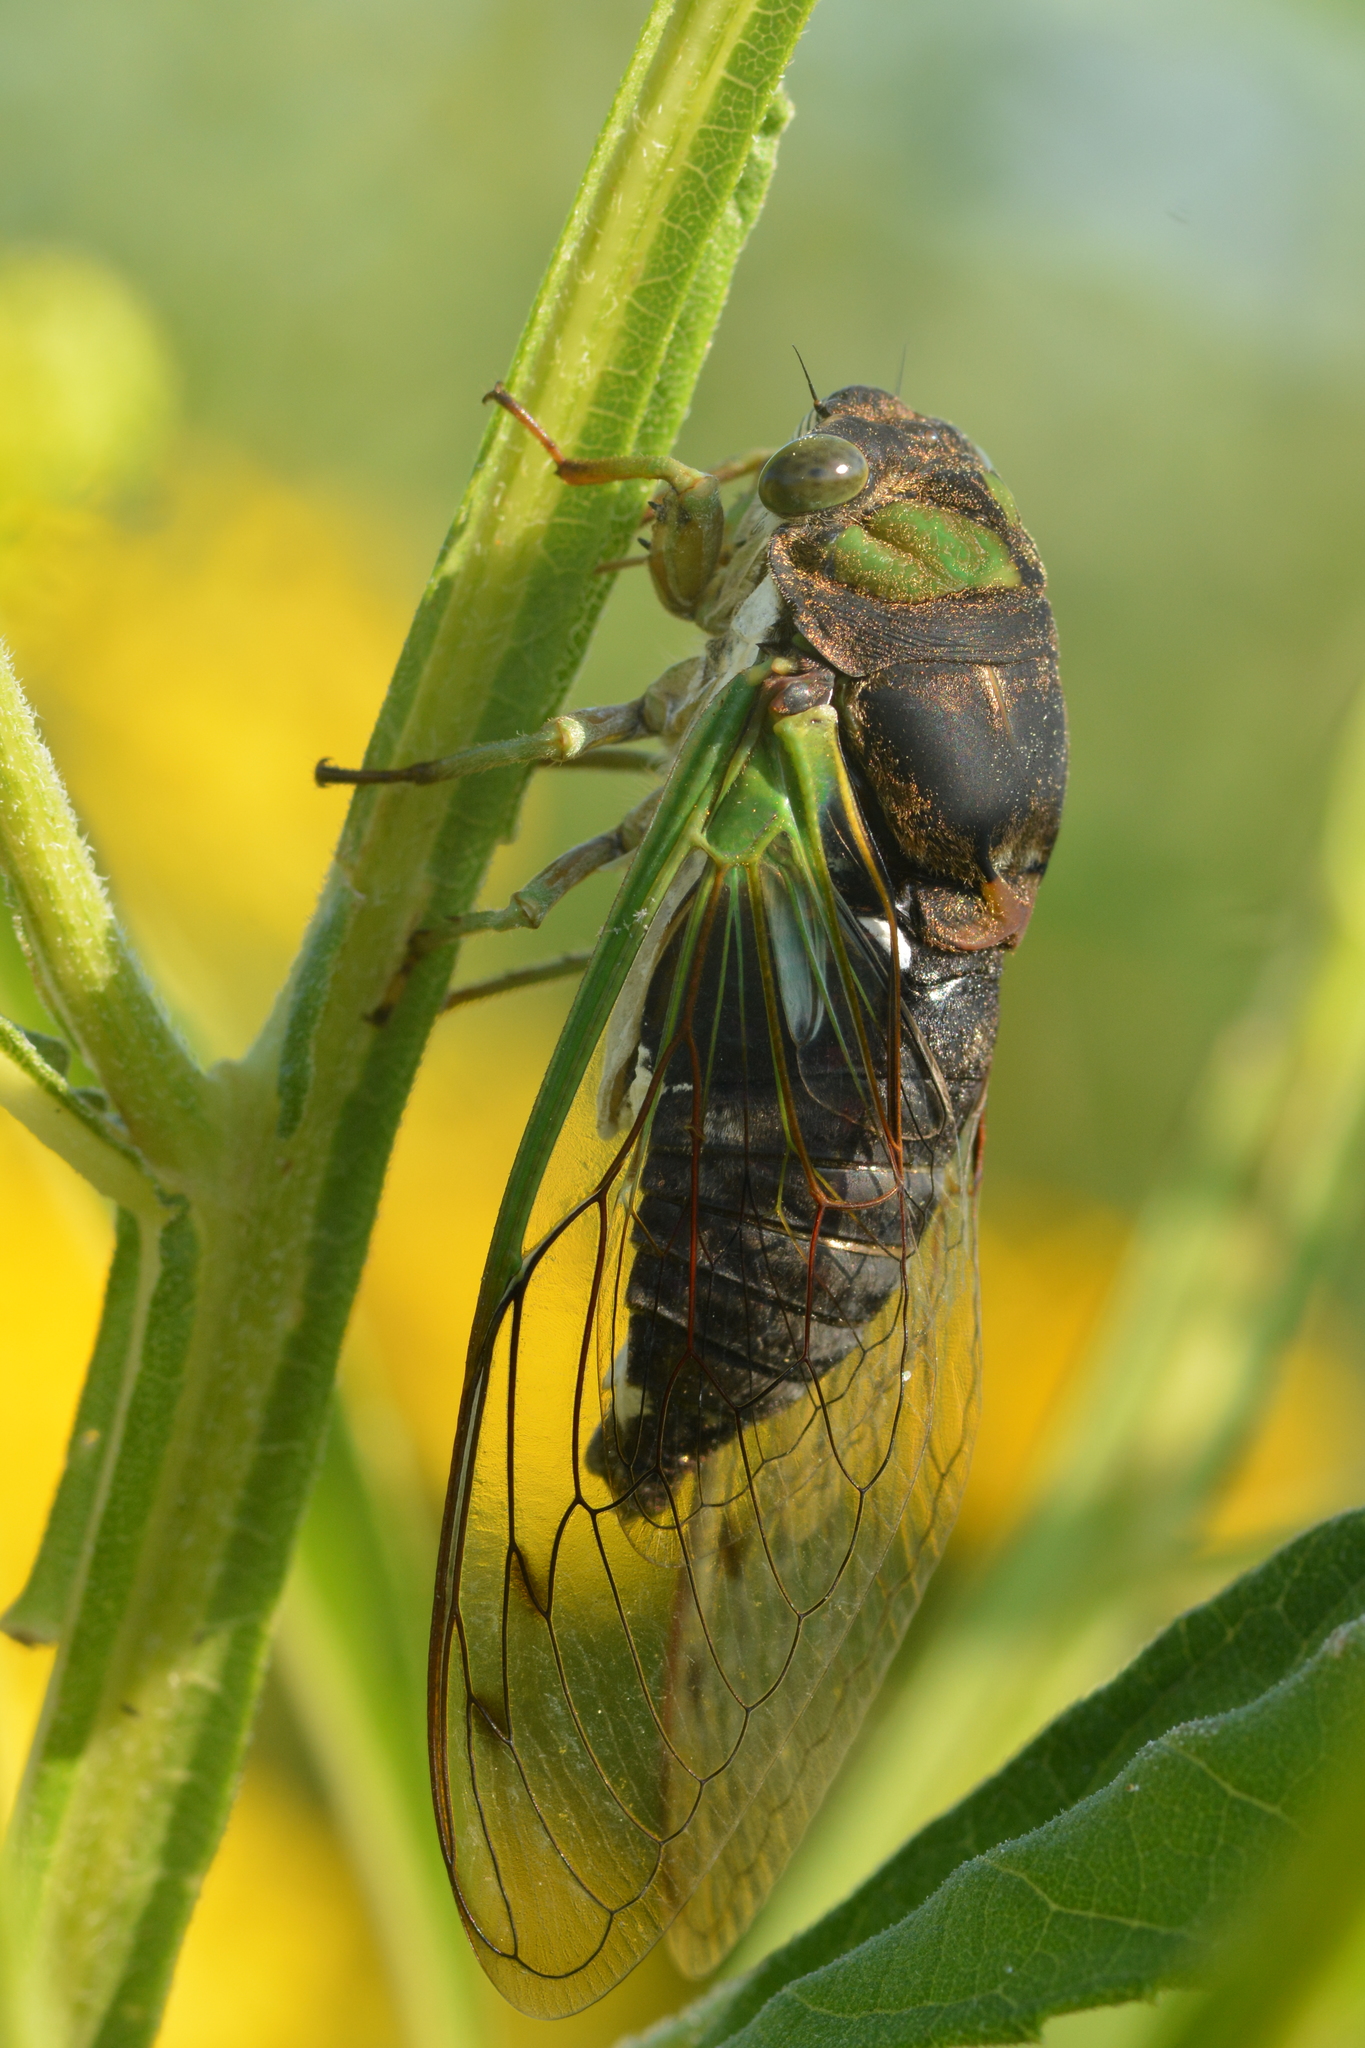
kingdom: Animalia
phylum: Arthropoda
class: Insecta
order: Hemiptera
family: Cicadidae
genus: Neotibicen
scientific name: Neotibicen tibicen
